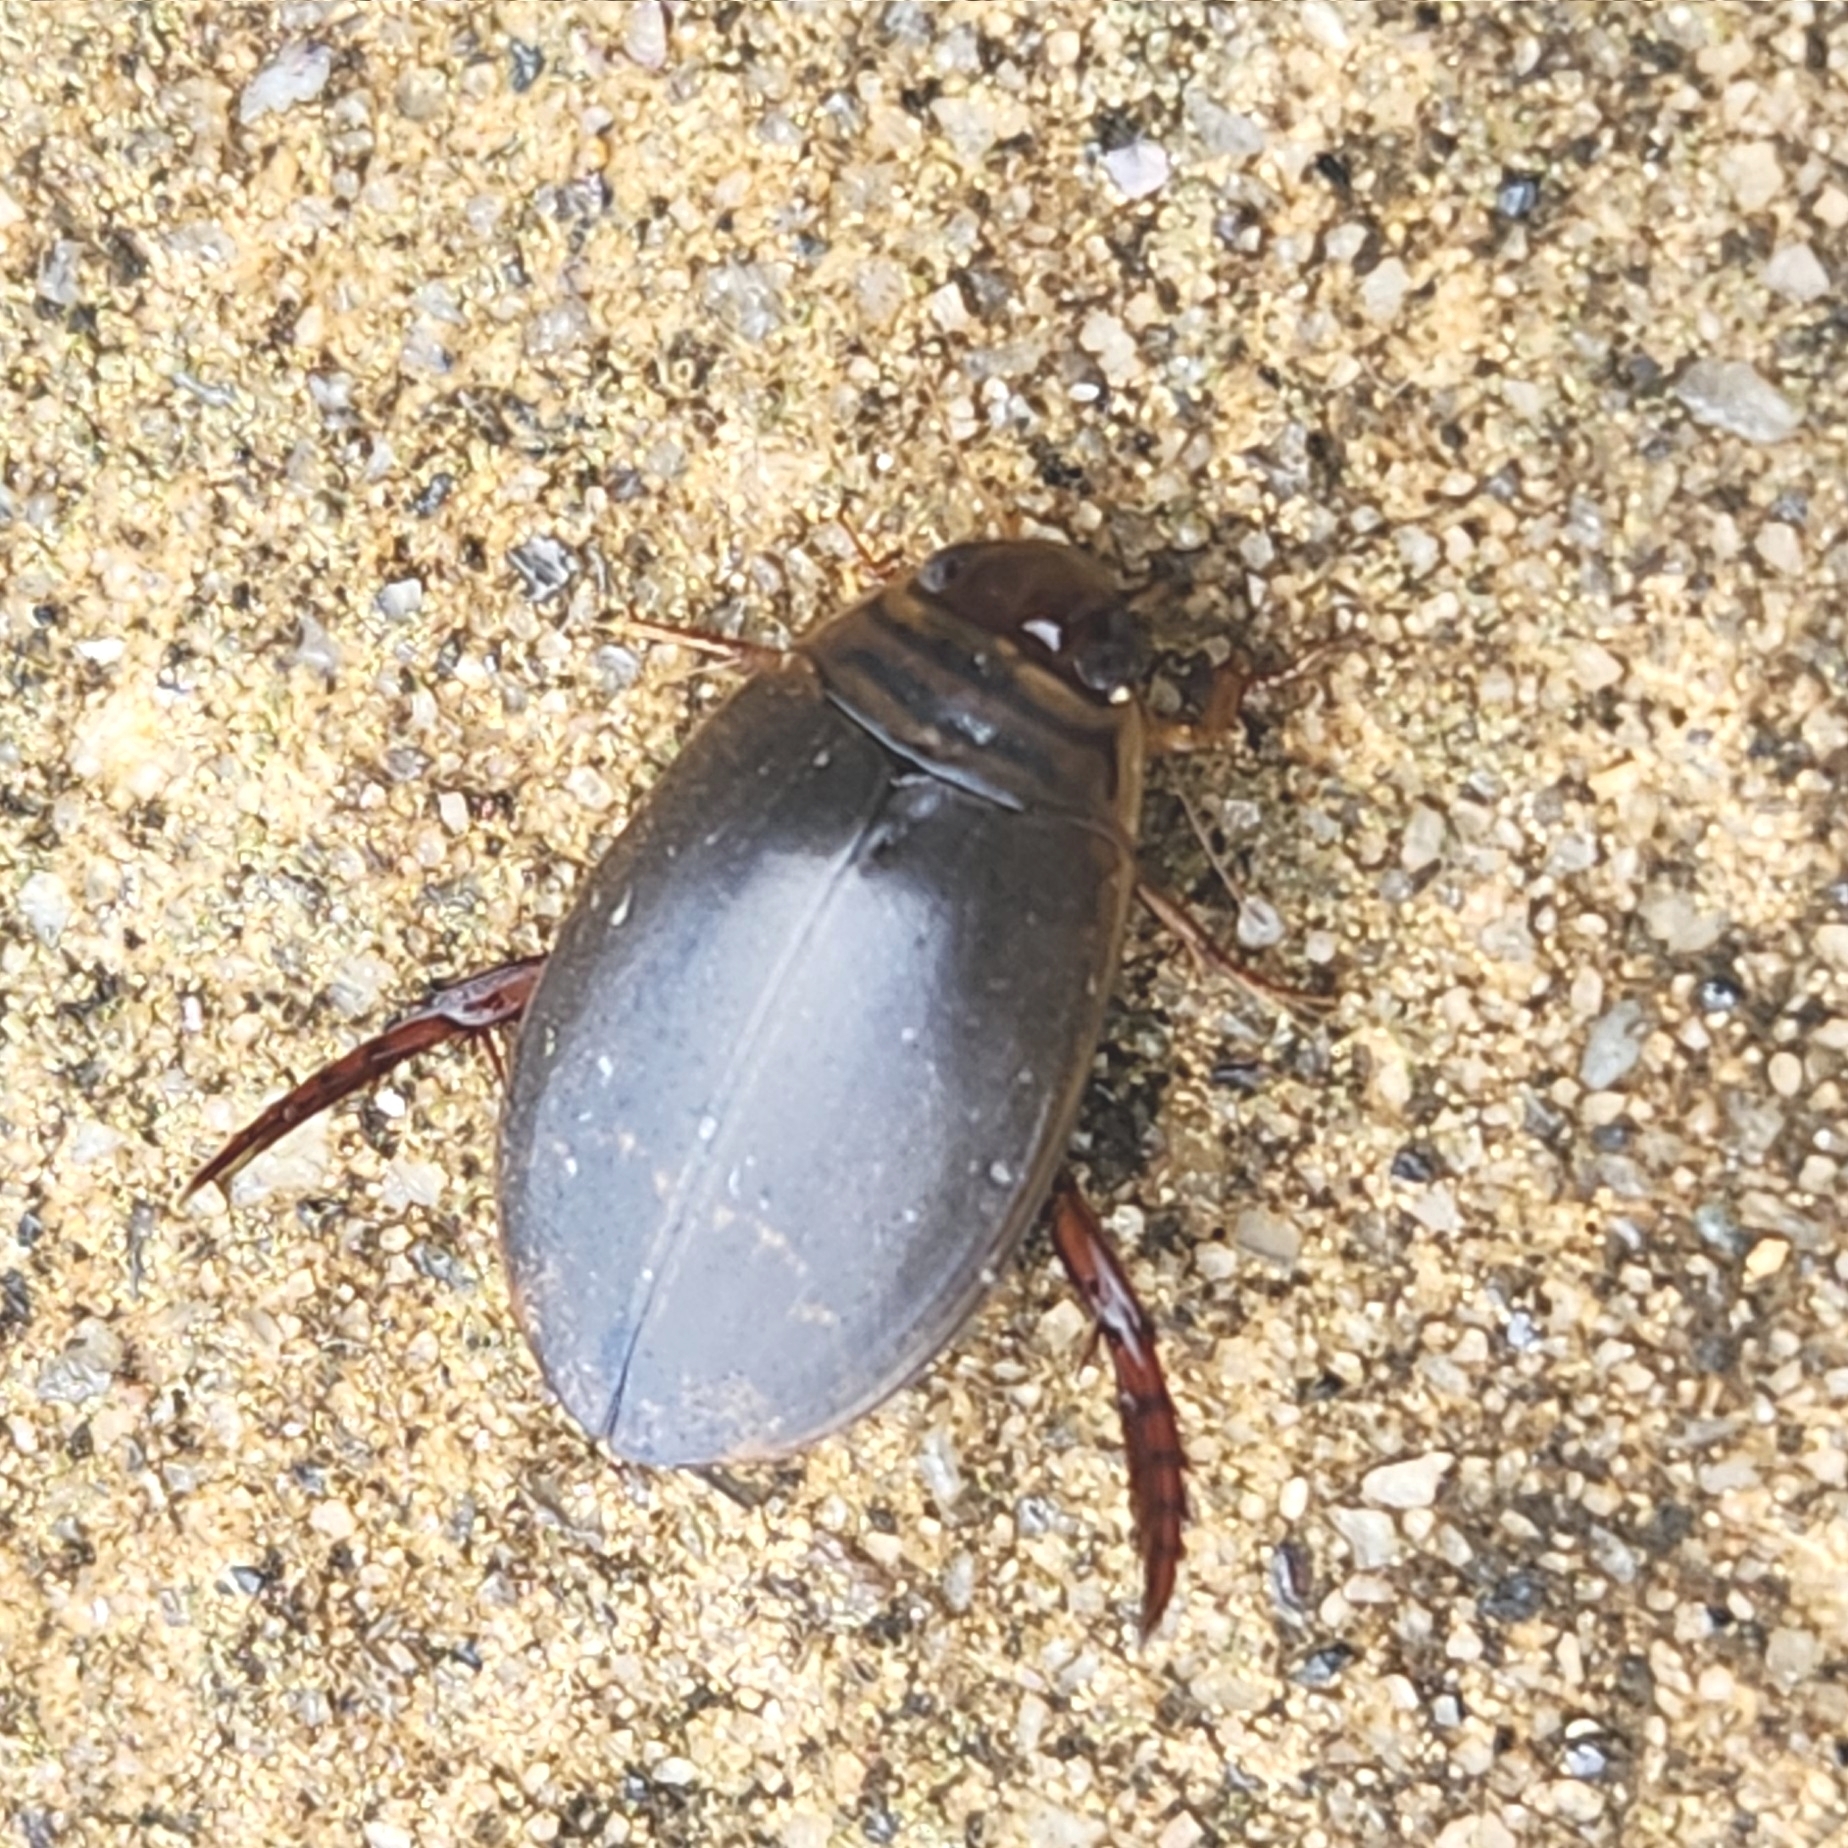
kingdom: Animalia
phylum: Arthropoda
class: Insecta
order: Coleoptera
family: Dytiscidae
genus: Acilius
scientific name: Acilius fraternus
